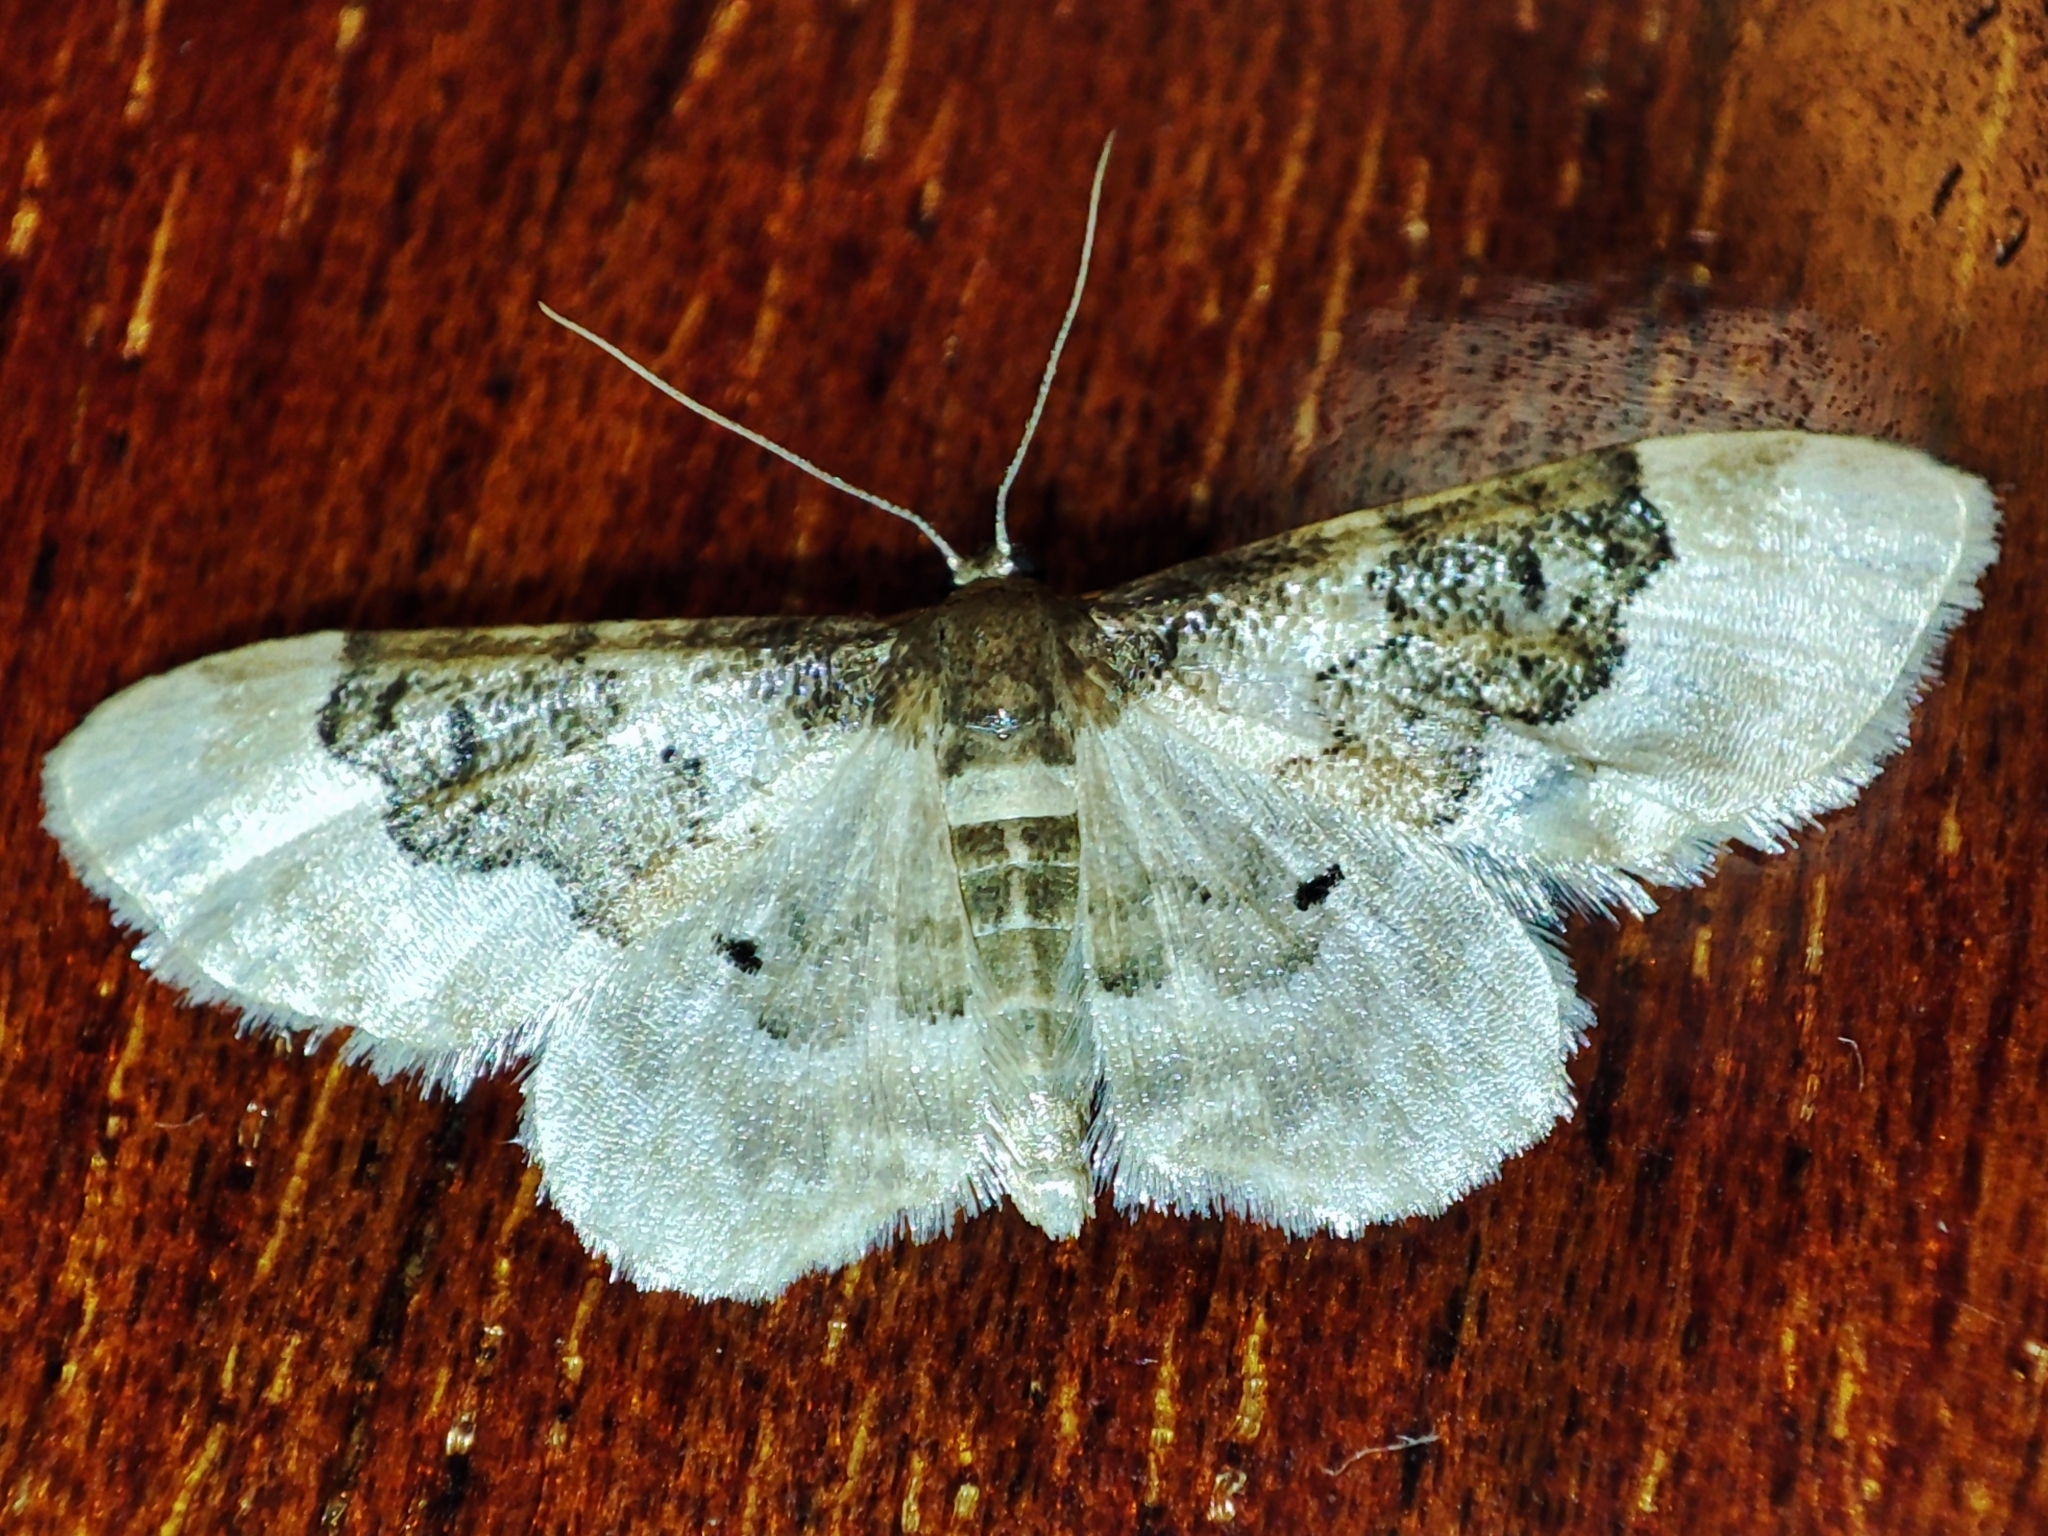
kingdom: Animalia
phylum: Arthropoda
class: Insecta
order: Lepidoptera
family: Geometridae
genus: Idaea
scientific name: Idaea rusticata
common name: Least carpet
